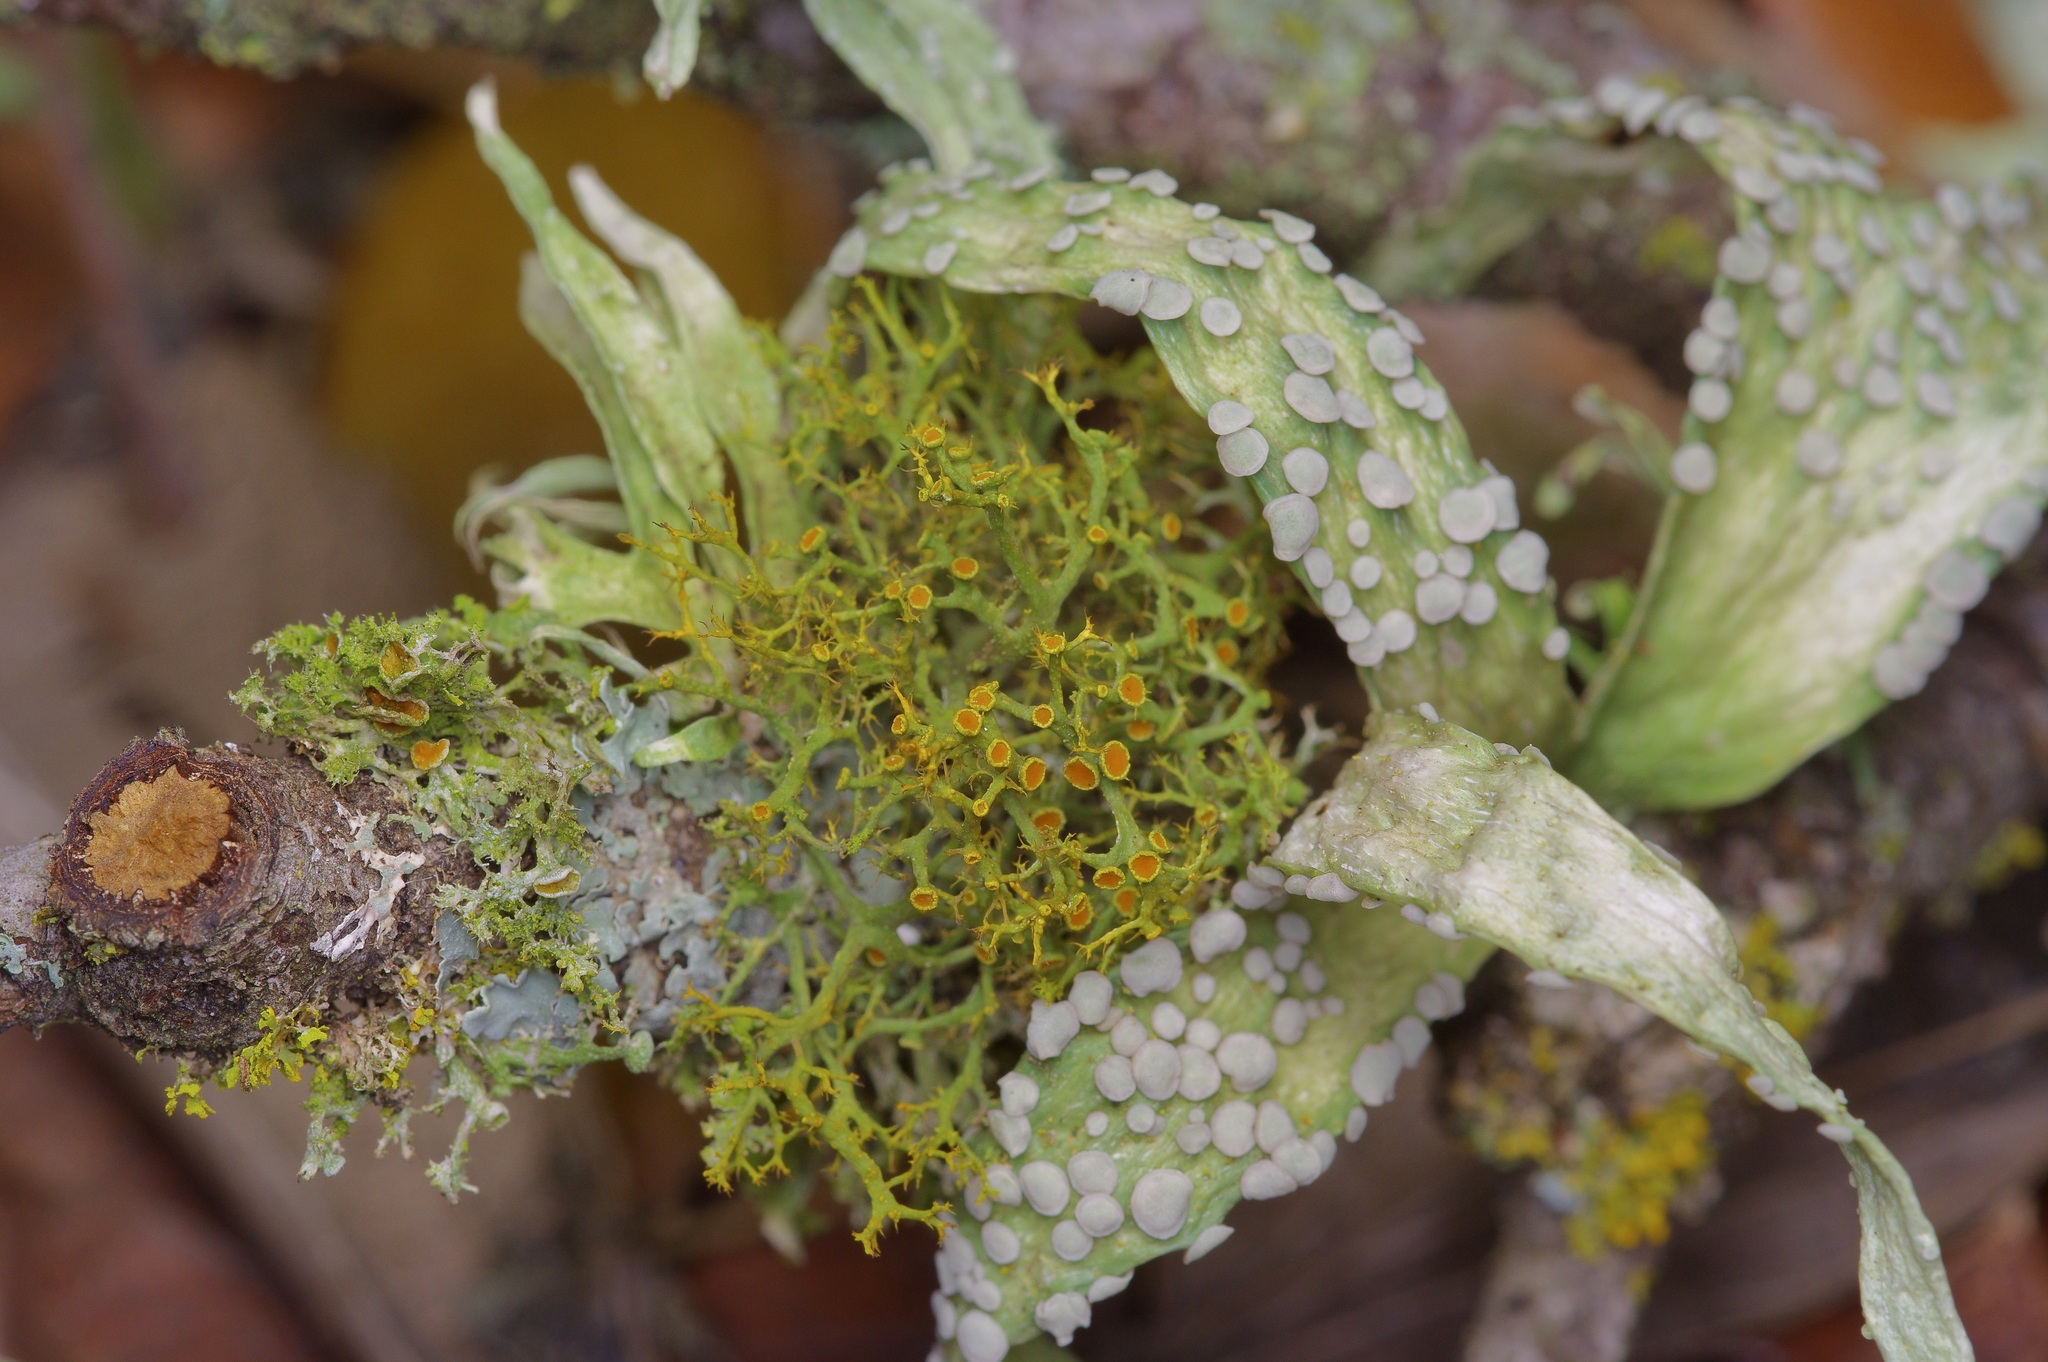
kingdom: Fungi
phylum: Ascomycota
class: Lecanoromycetes
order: Teloschistales
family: Teloschistaceae
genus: Teloschistes
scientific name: Teloschistes exilis
